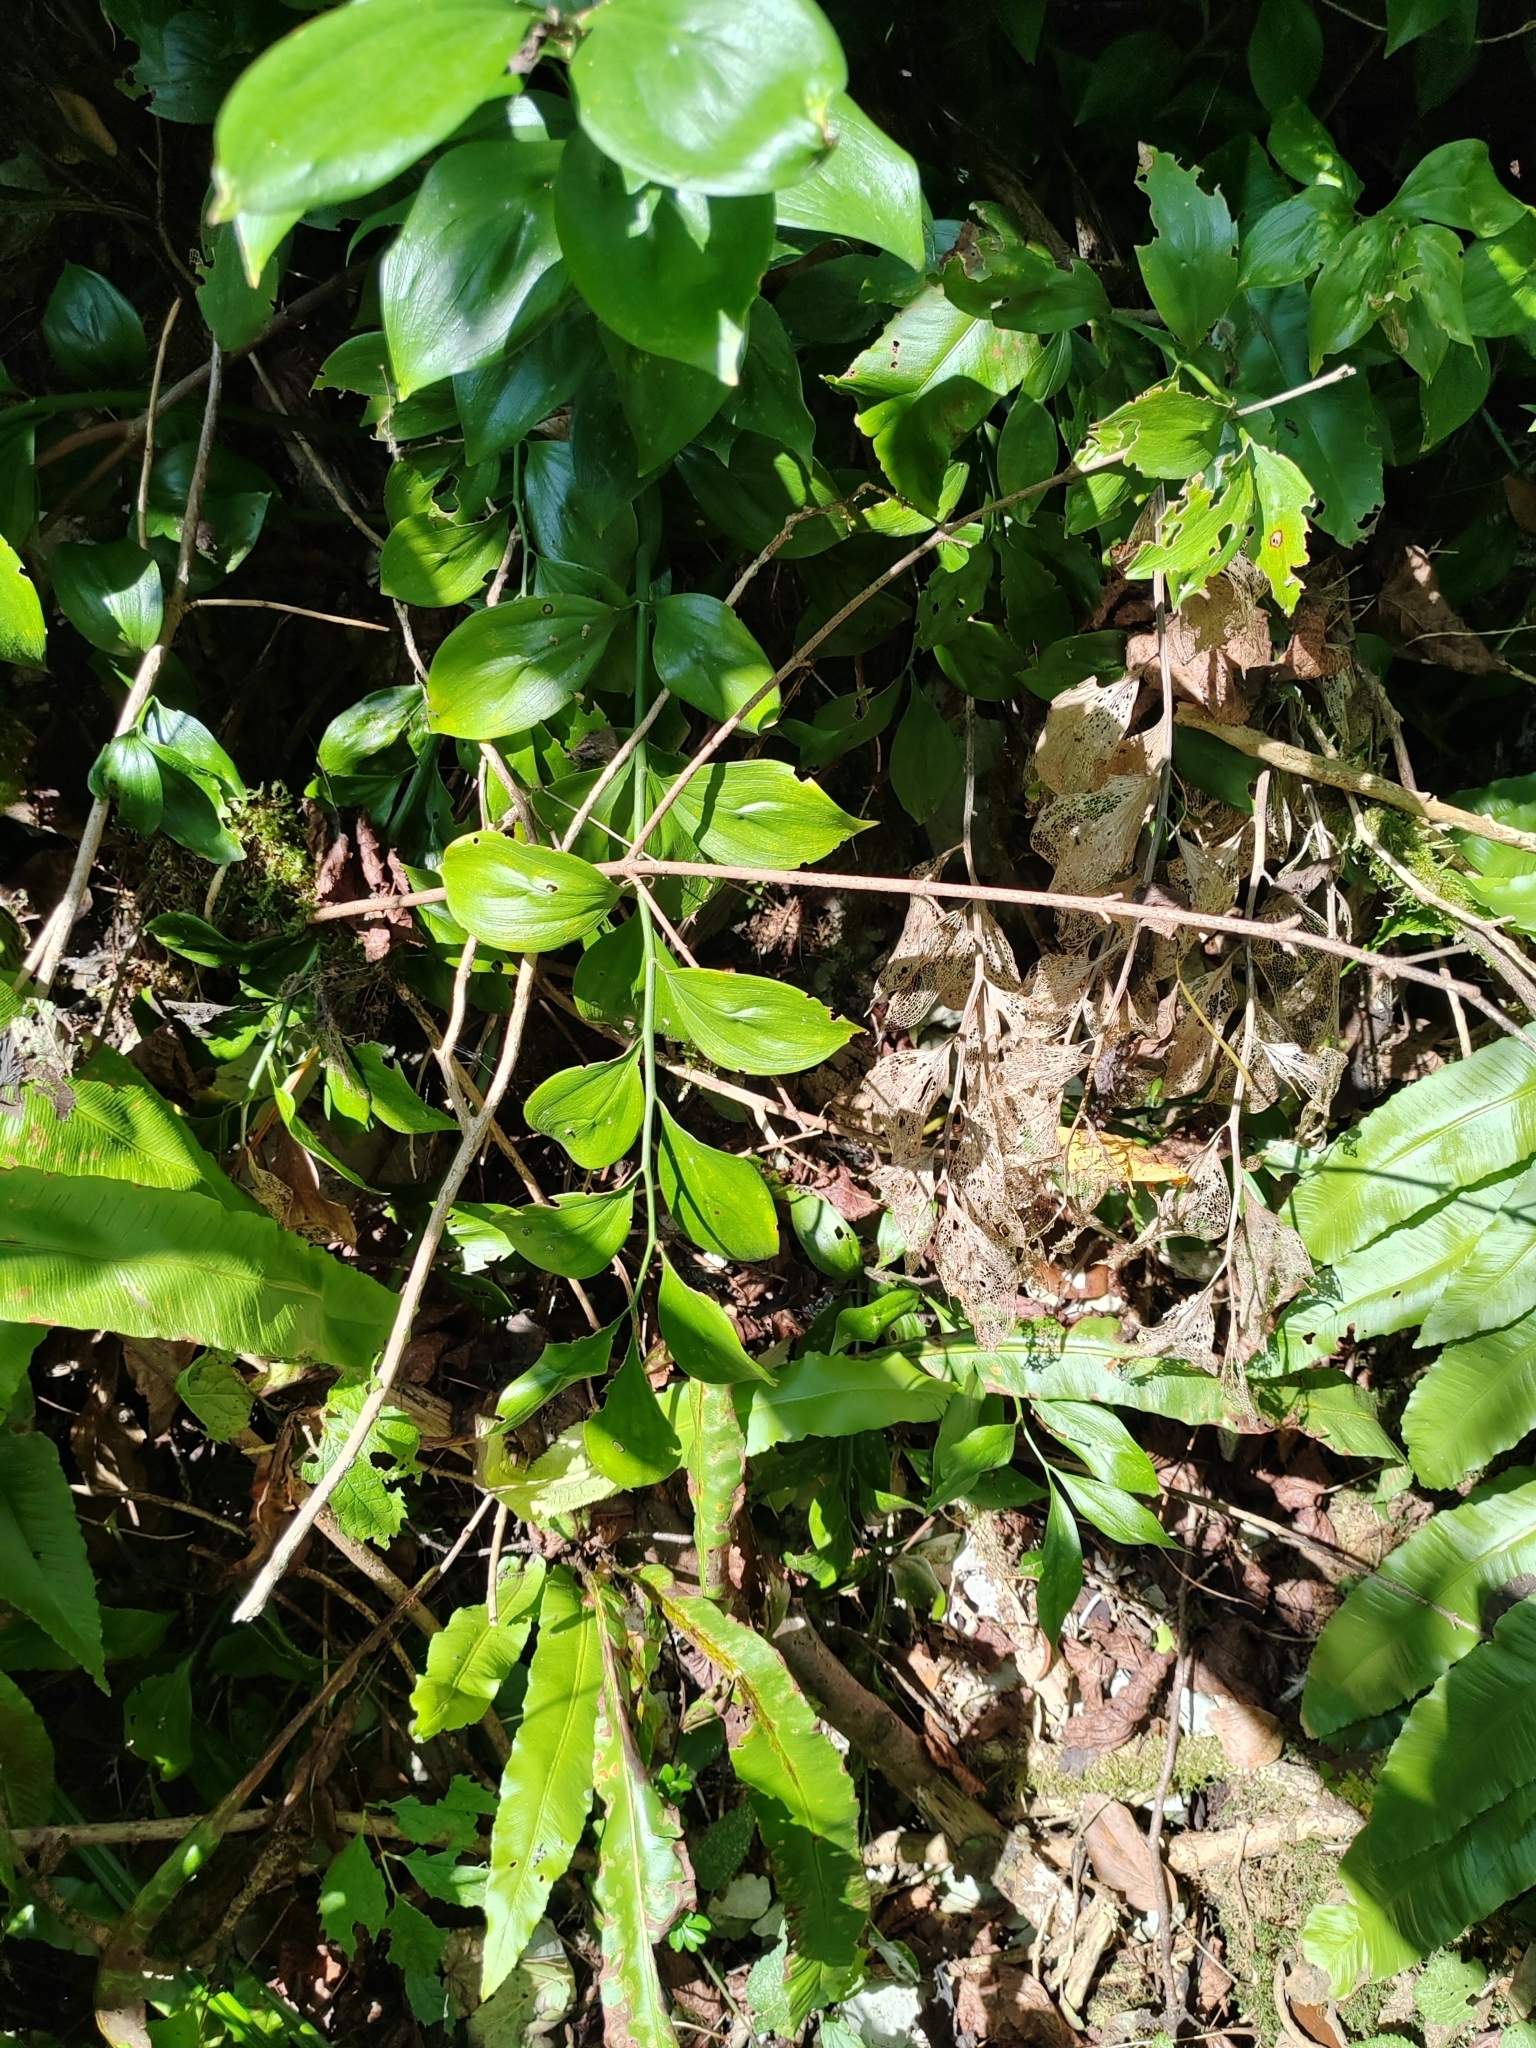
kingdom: Plantae
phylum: Tracheophyta
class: Liliopsida
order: Asparagales
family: Asparagaceae
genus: Ruscus
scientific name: Ruscus colchicus
